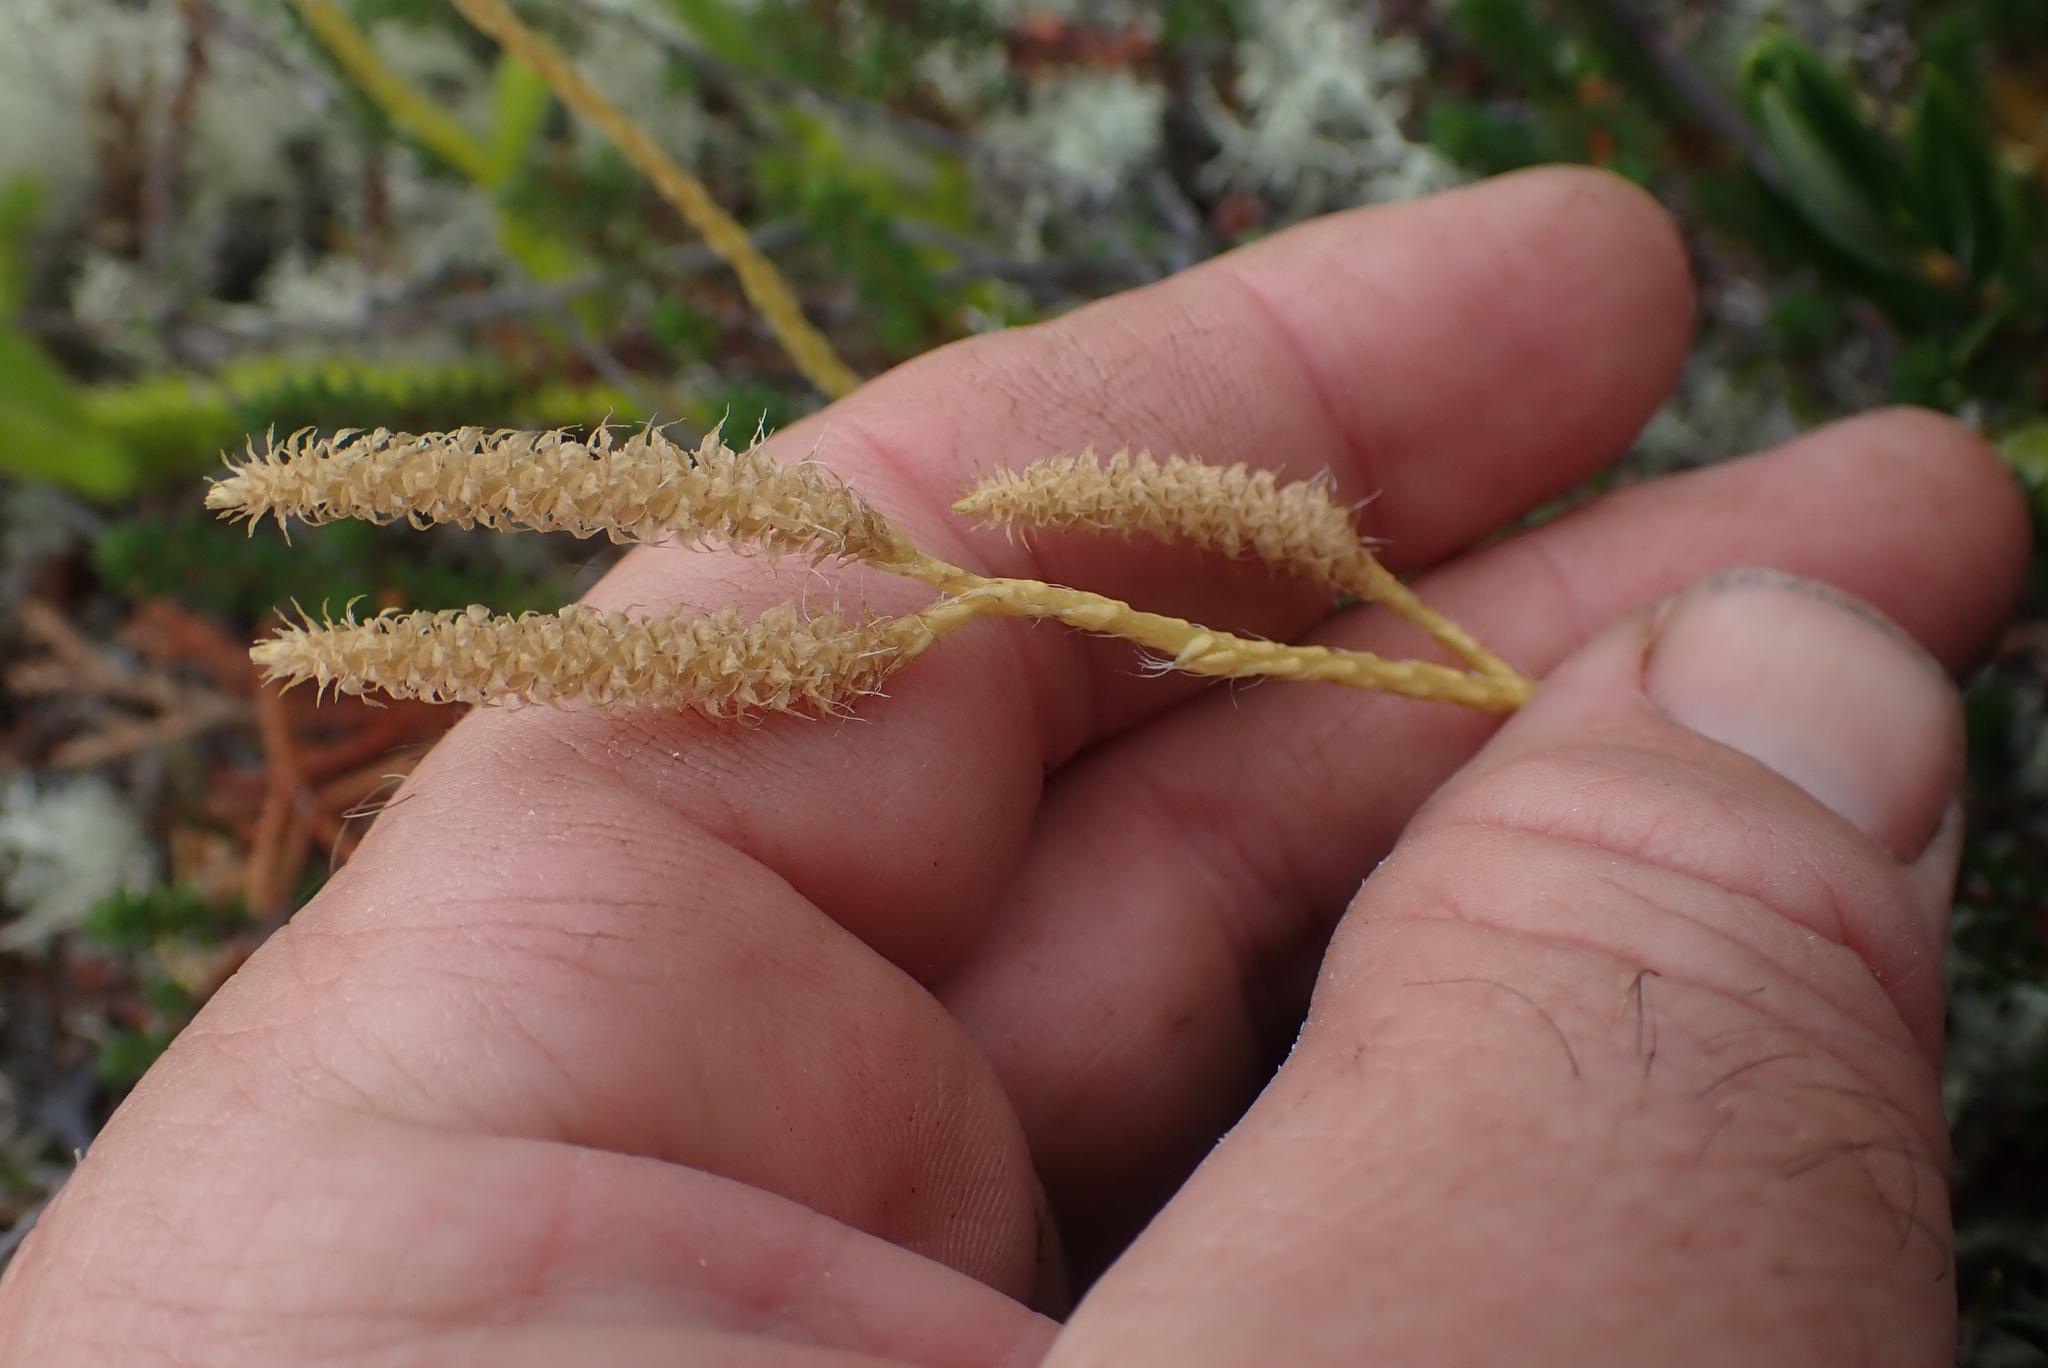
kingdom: Plantae
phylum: Tracheophyta
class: Lycopodiopsida
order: Lycopodiales
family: Lycopodiaceae
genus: Lycopodium
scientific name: Lycopodium clavatum
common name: Stag's-horn clubmoss
